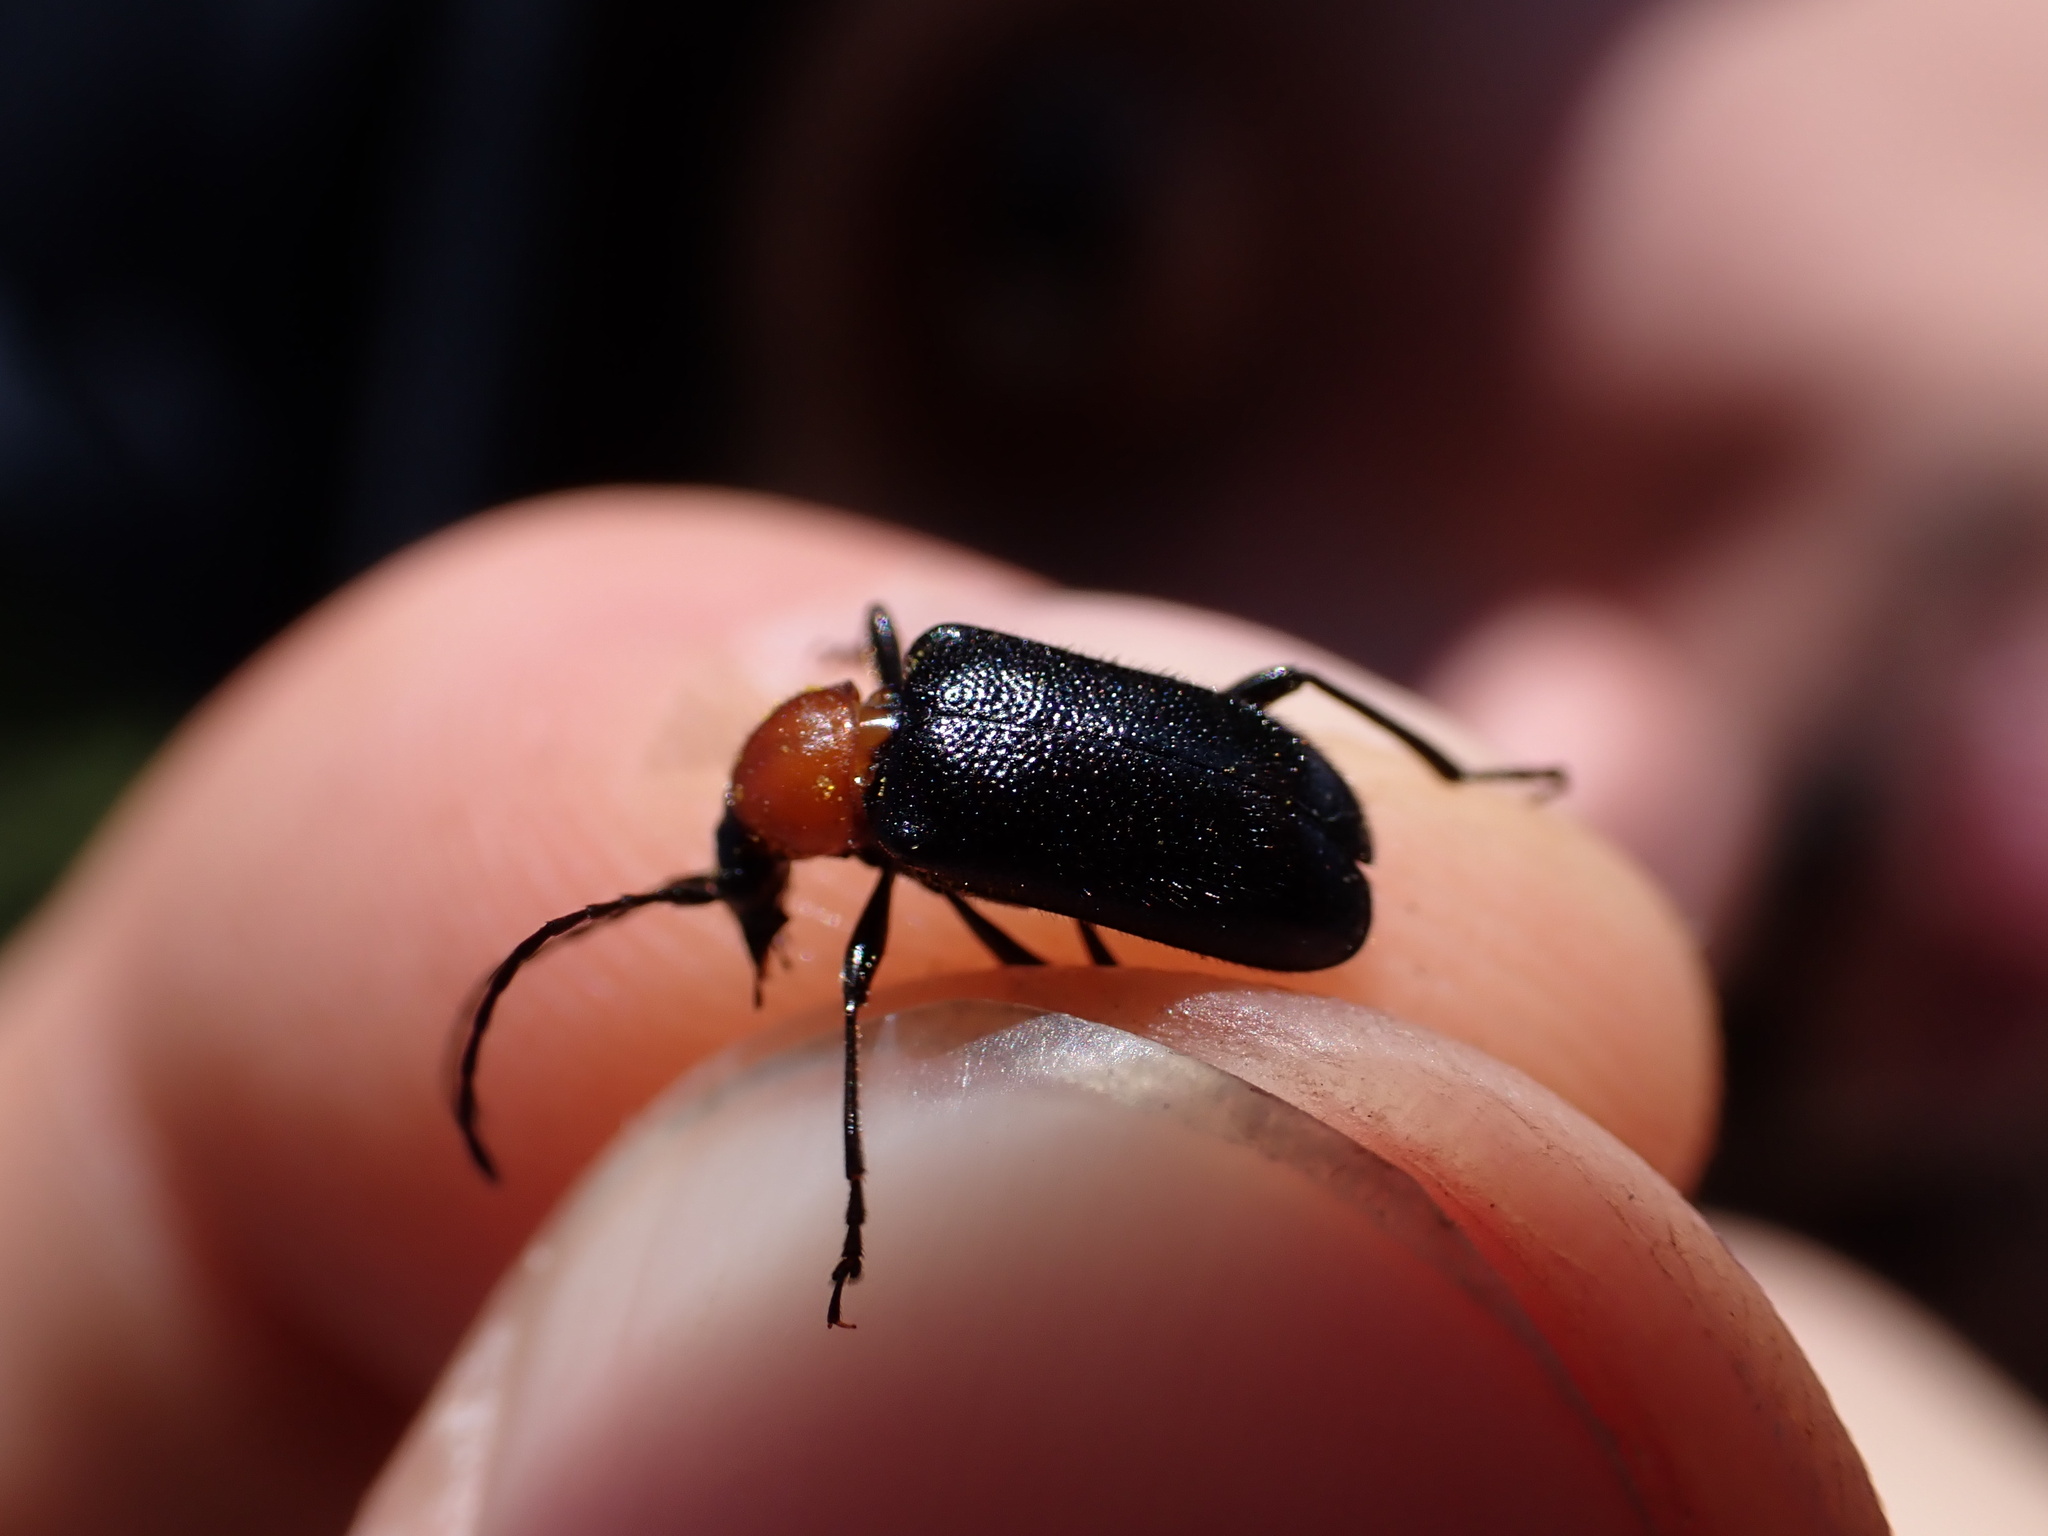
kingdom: Animalia
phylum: Arthropoda
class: Insecta
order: Coleoptera
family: Cerambycidae
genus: Dinoptera
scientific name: Dinoptera collaris
